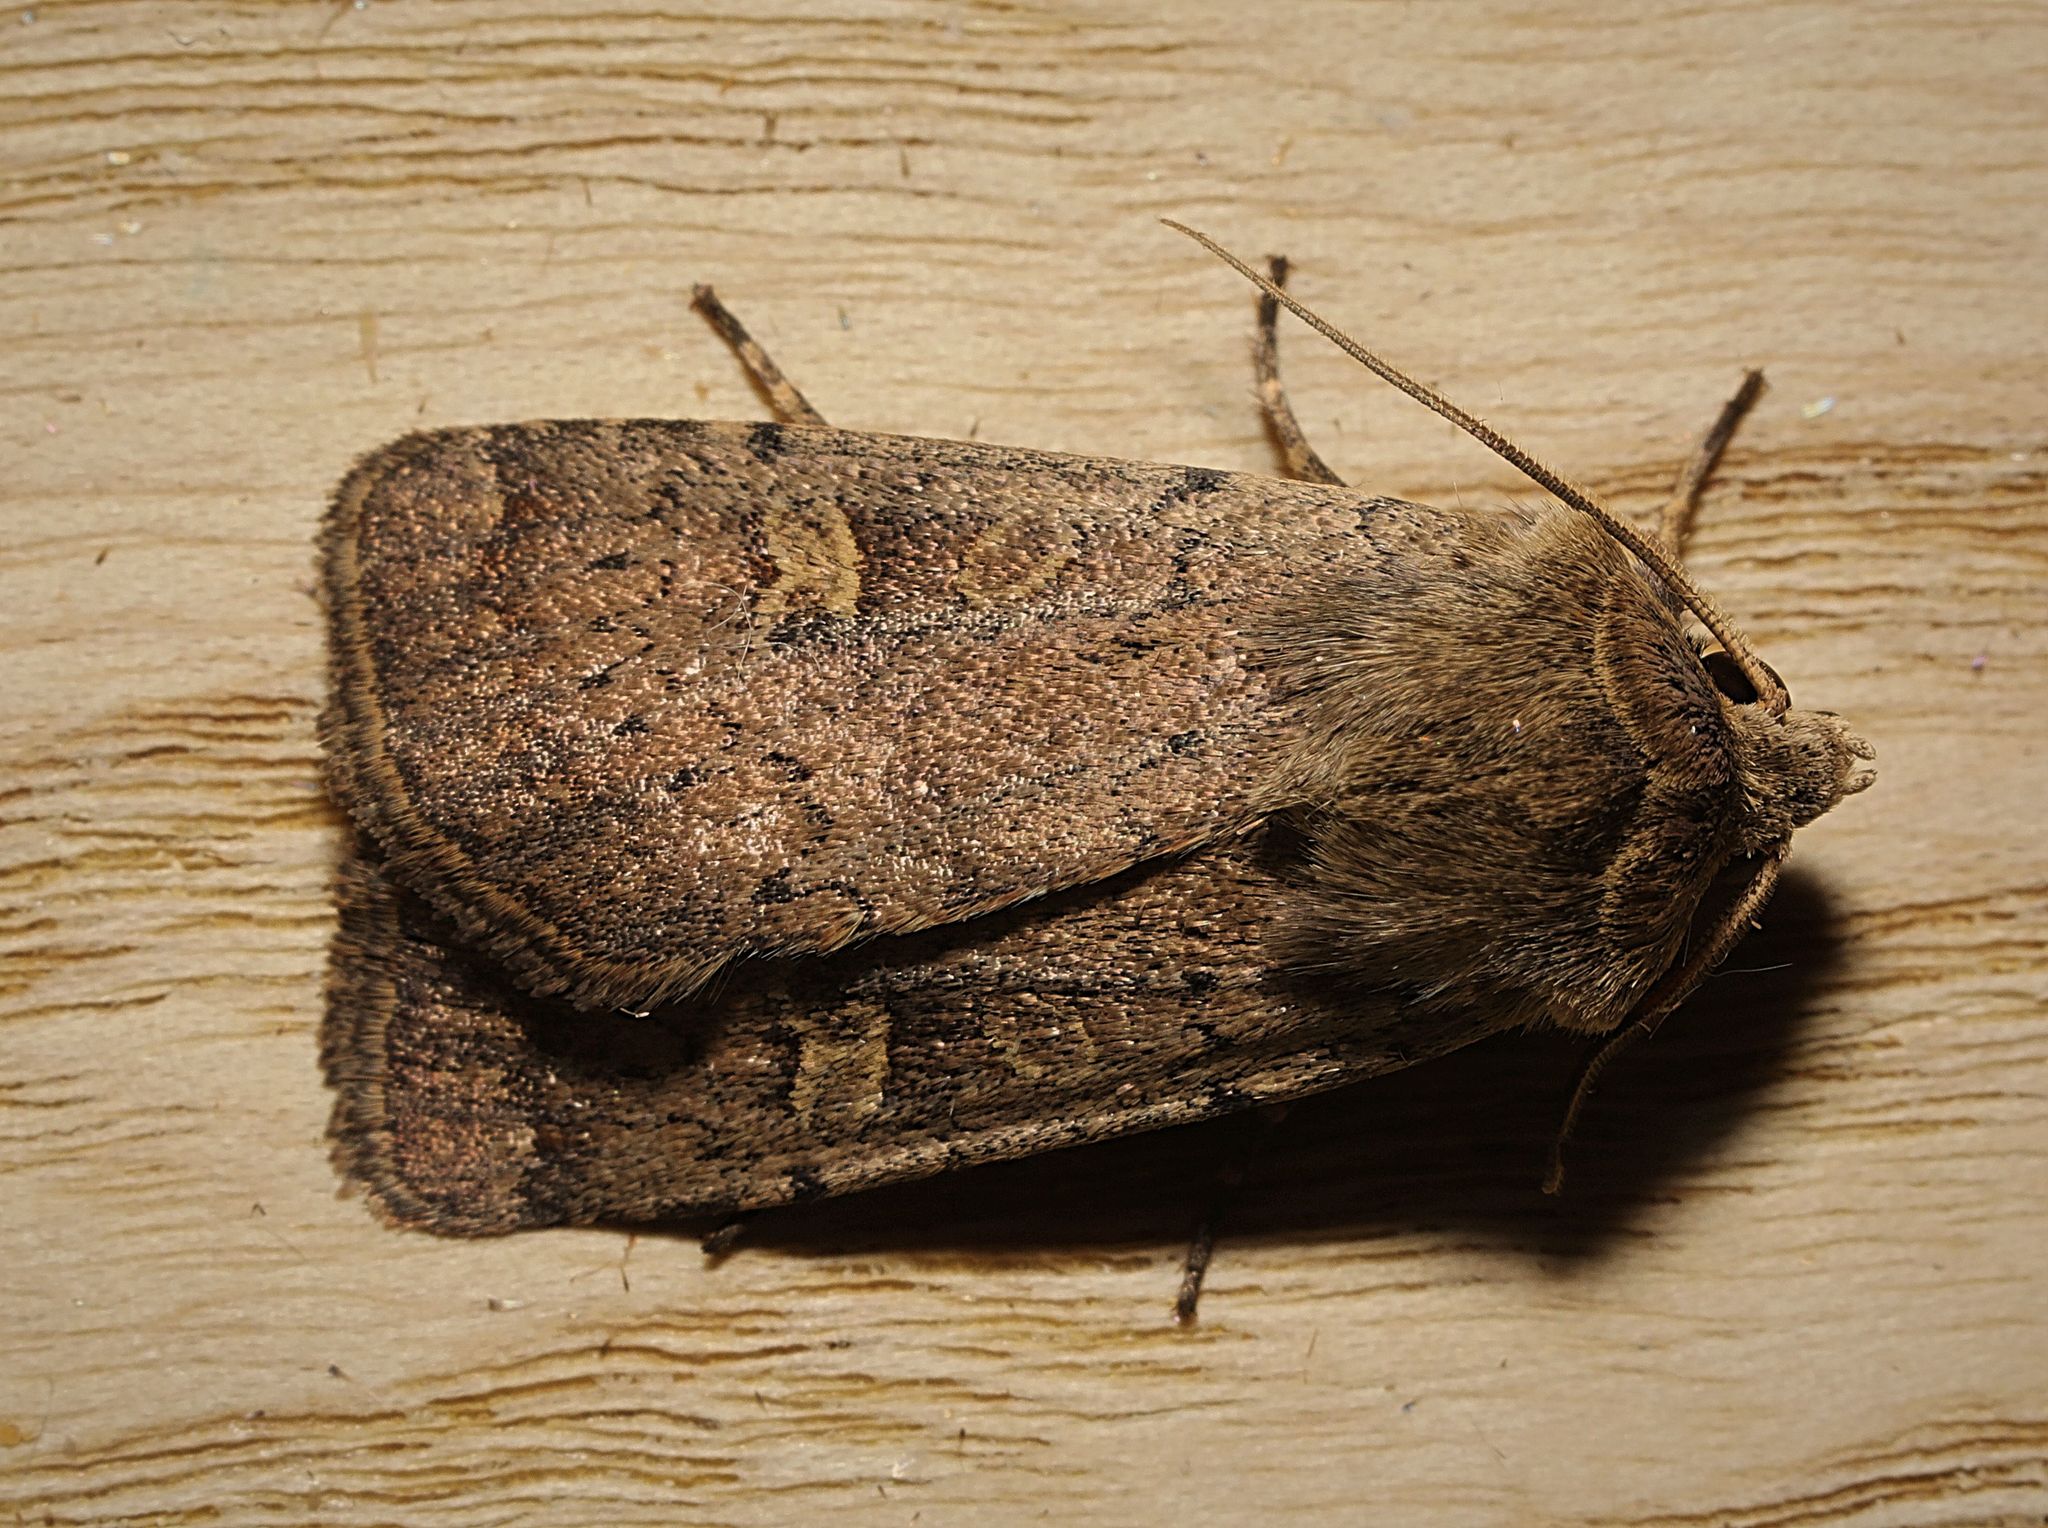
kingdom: Animalia
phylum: Arthropoda
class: Insecta
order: Lepidoptera
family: Noctuidae
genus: Xestia
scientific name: Xestia xanthographa
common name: Square-spot rustic
